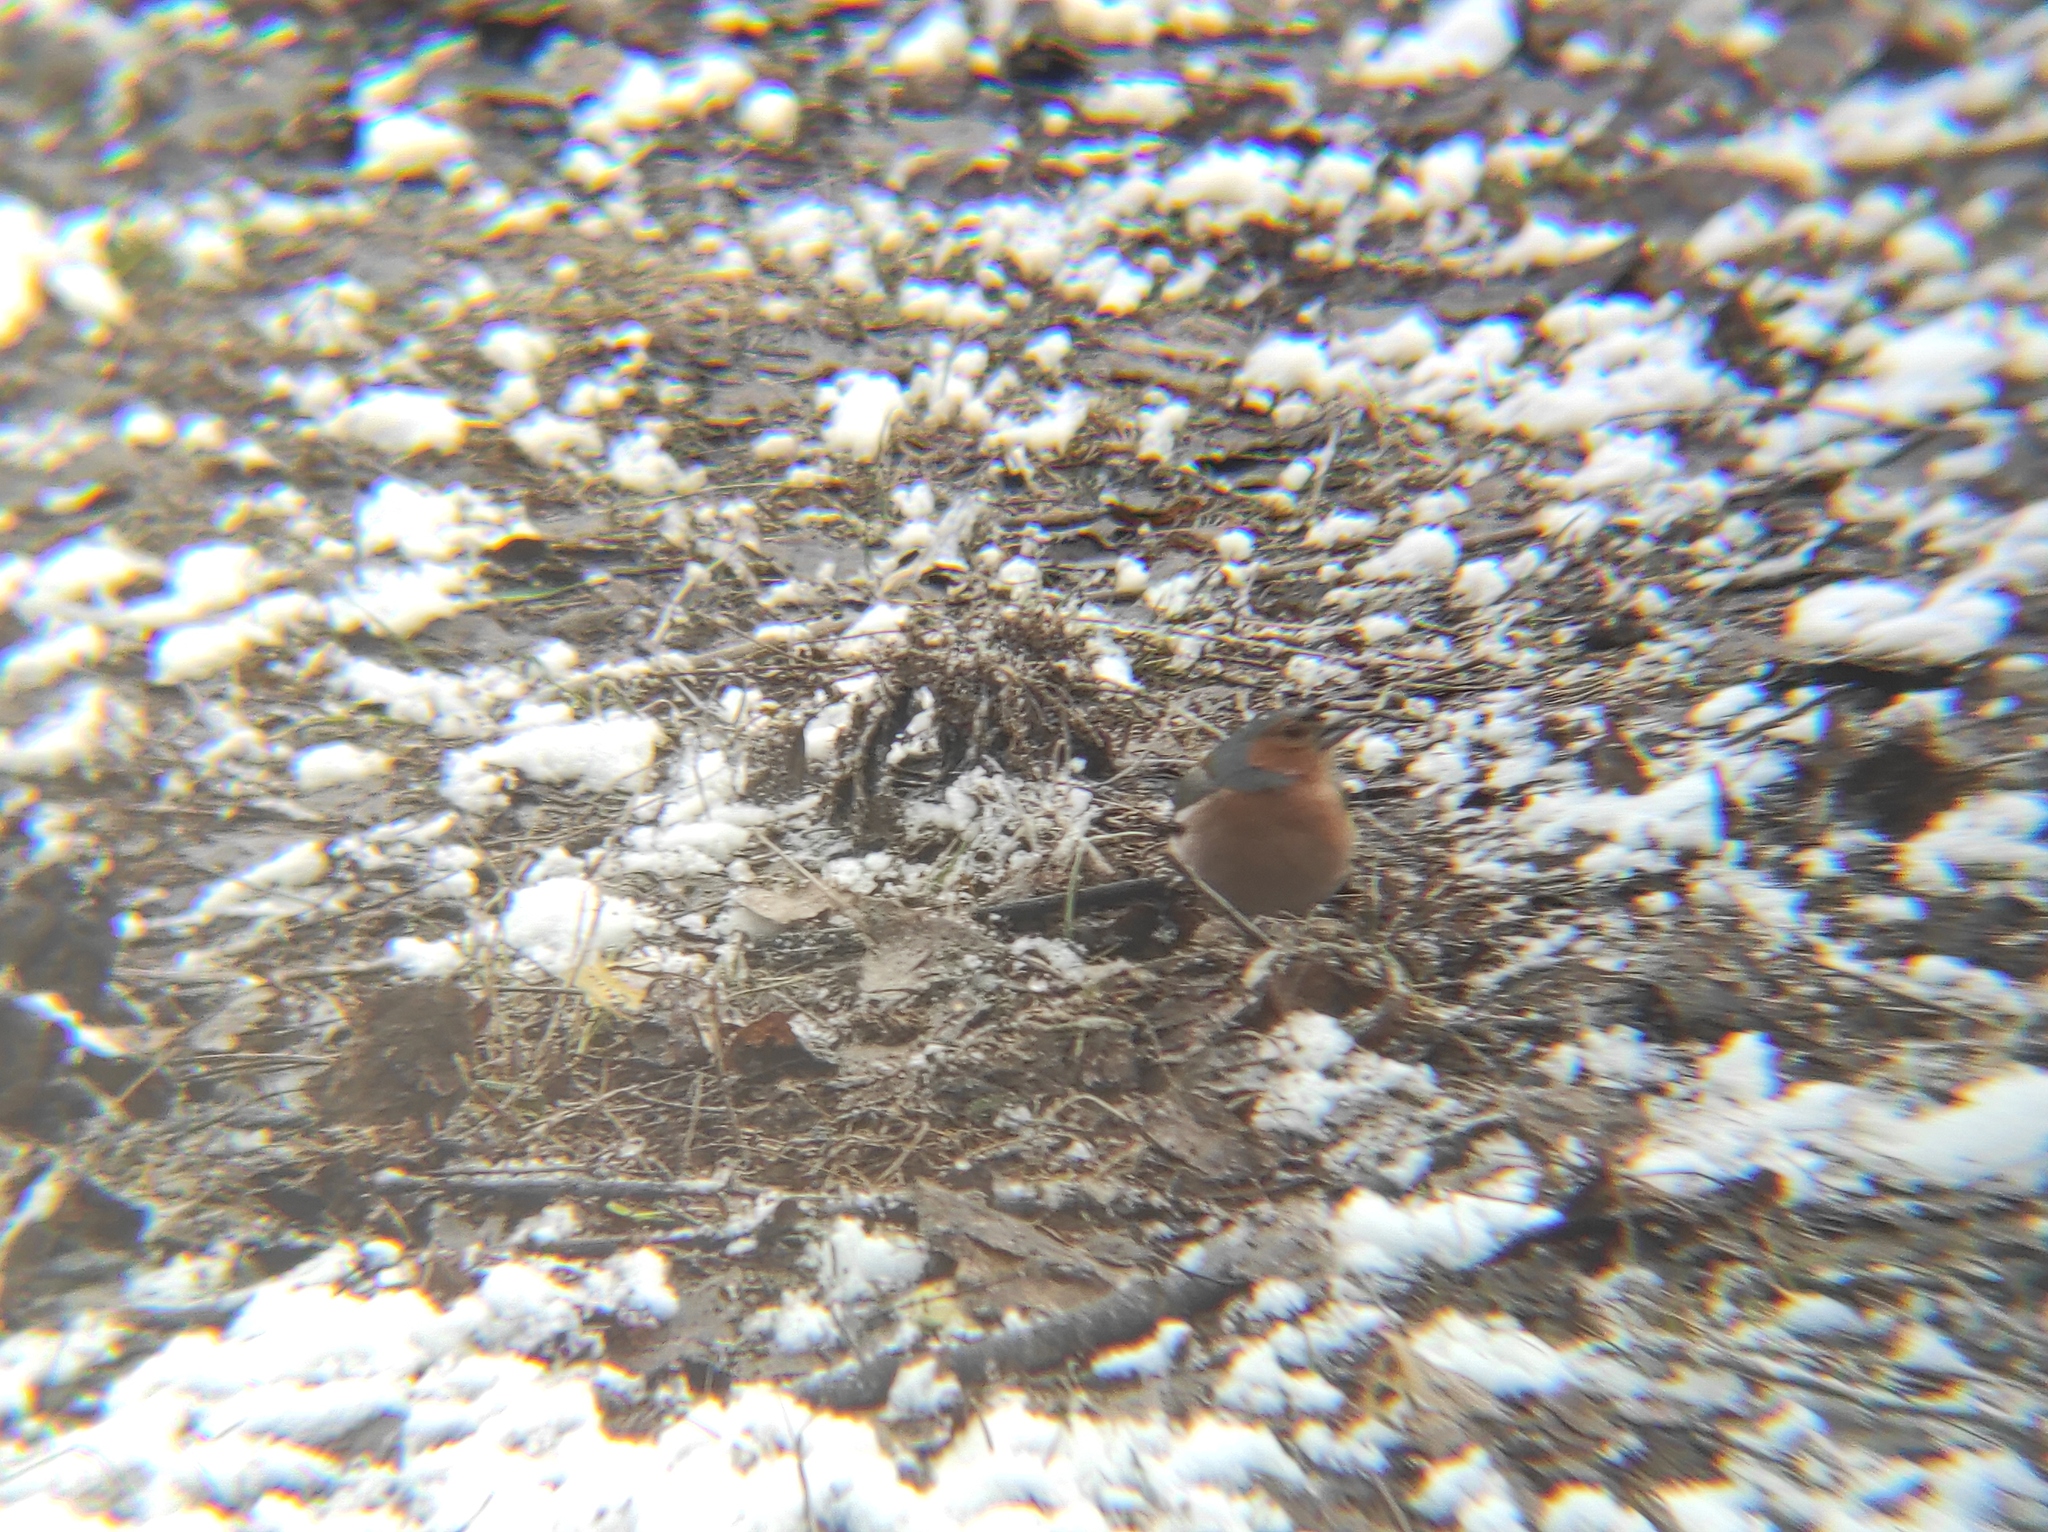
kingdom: Animalia
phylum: Chordata
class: Aves
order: Passeriformes
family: Fringillidae
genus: Fringilla
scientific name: Fringilla coelebs
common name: Common chaffinch
